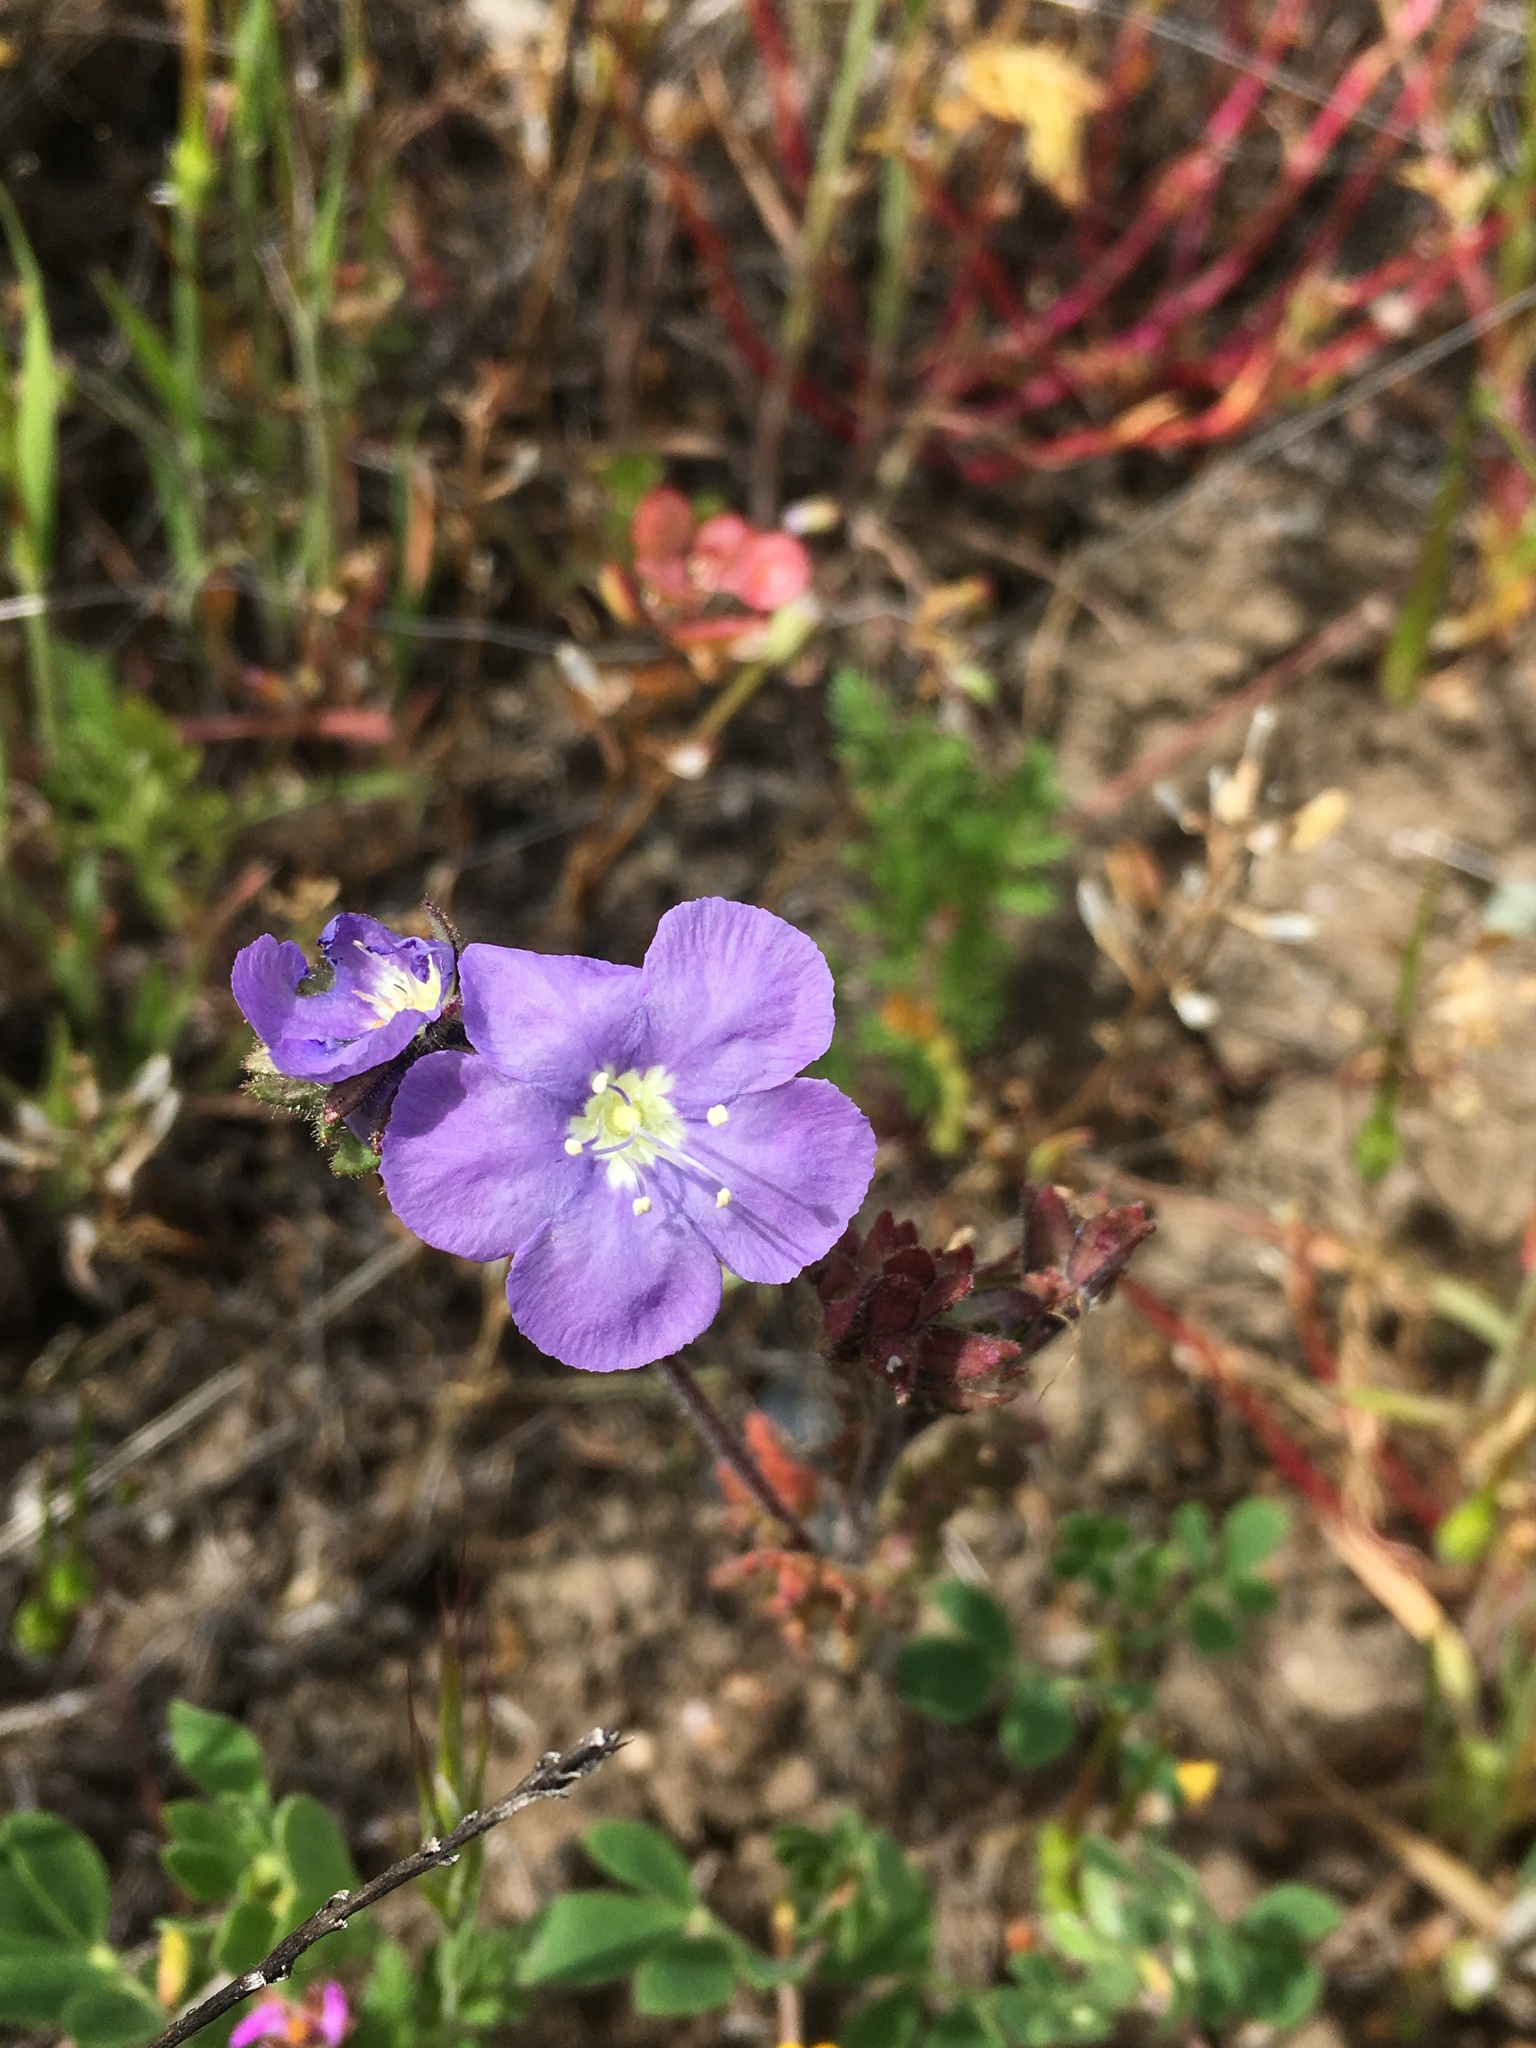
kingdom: Plantae
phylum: Tracheophyta
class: Magnoliopsida
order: Boraginales
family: Hydrophyllaceae
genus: Phacelia
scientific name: Phacelia ciliata
